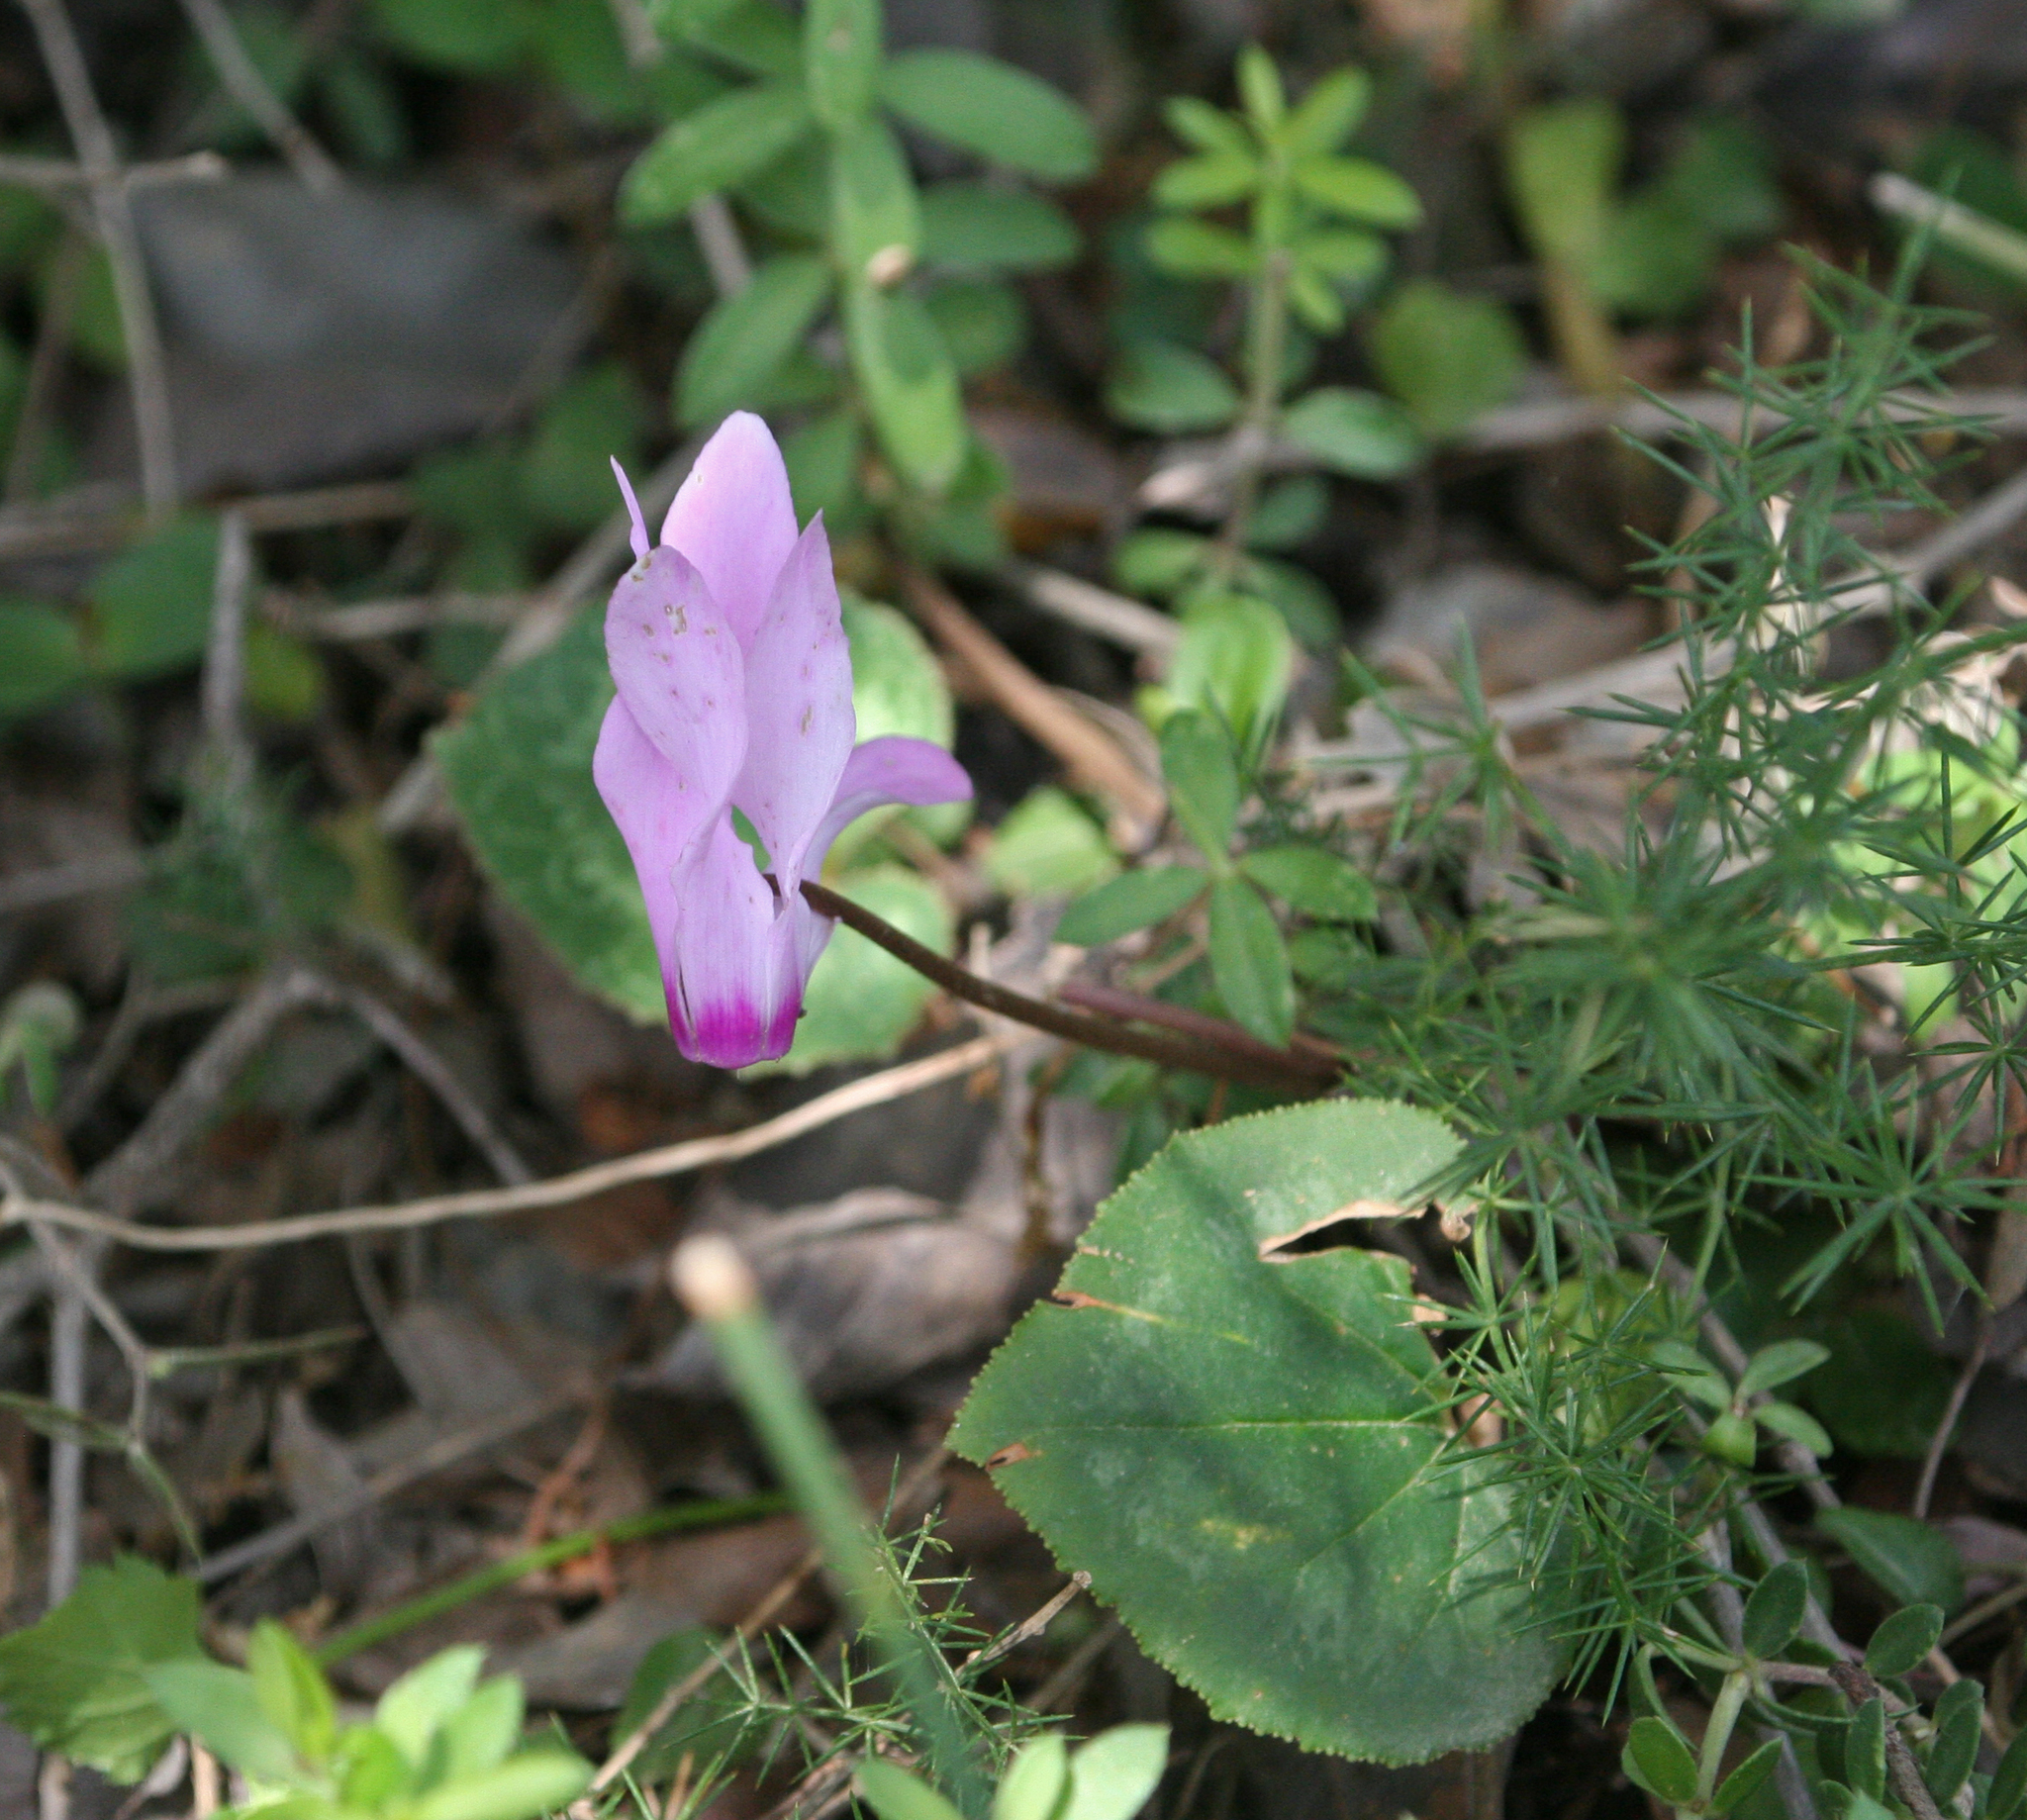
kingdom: Plantae
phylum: Tracheophyta
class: Magnoliopsida
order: Ericales
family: Primulaceae
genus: Cyclamen
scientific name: Cyclamen persicum
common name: Florist's cyclamen
